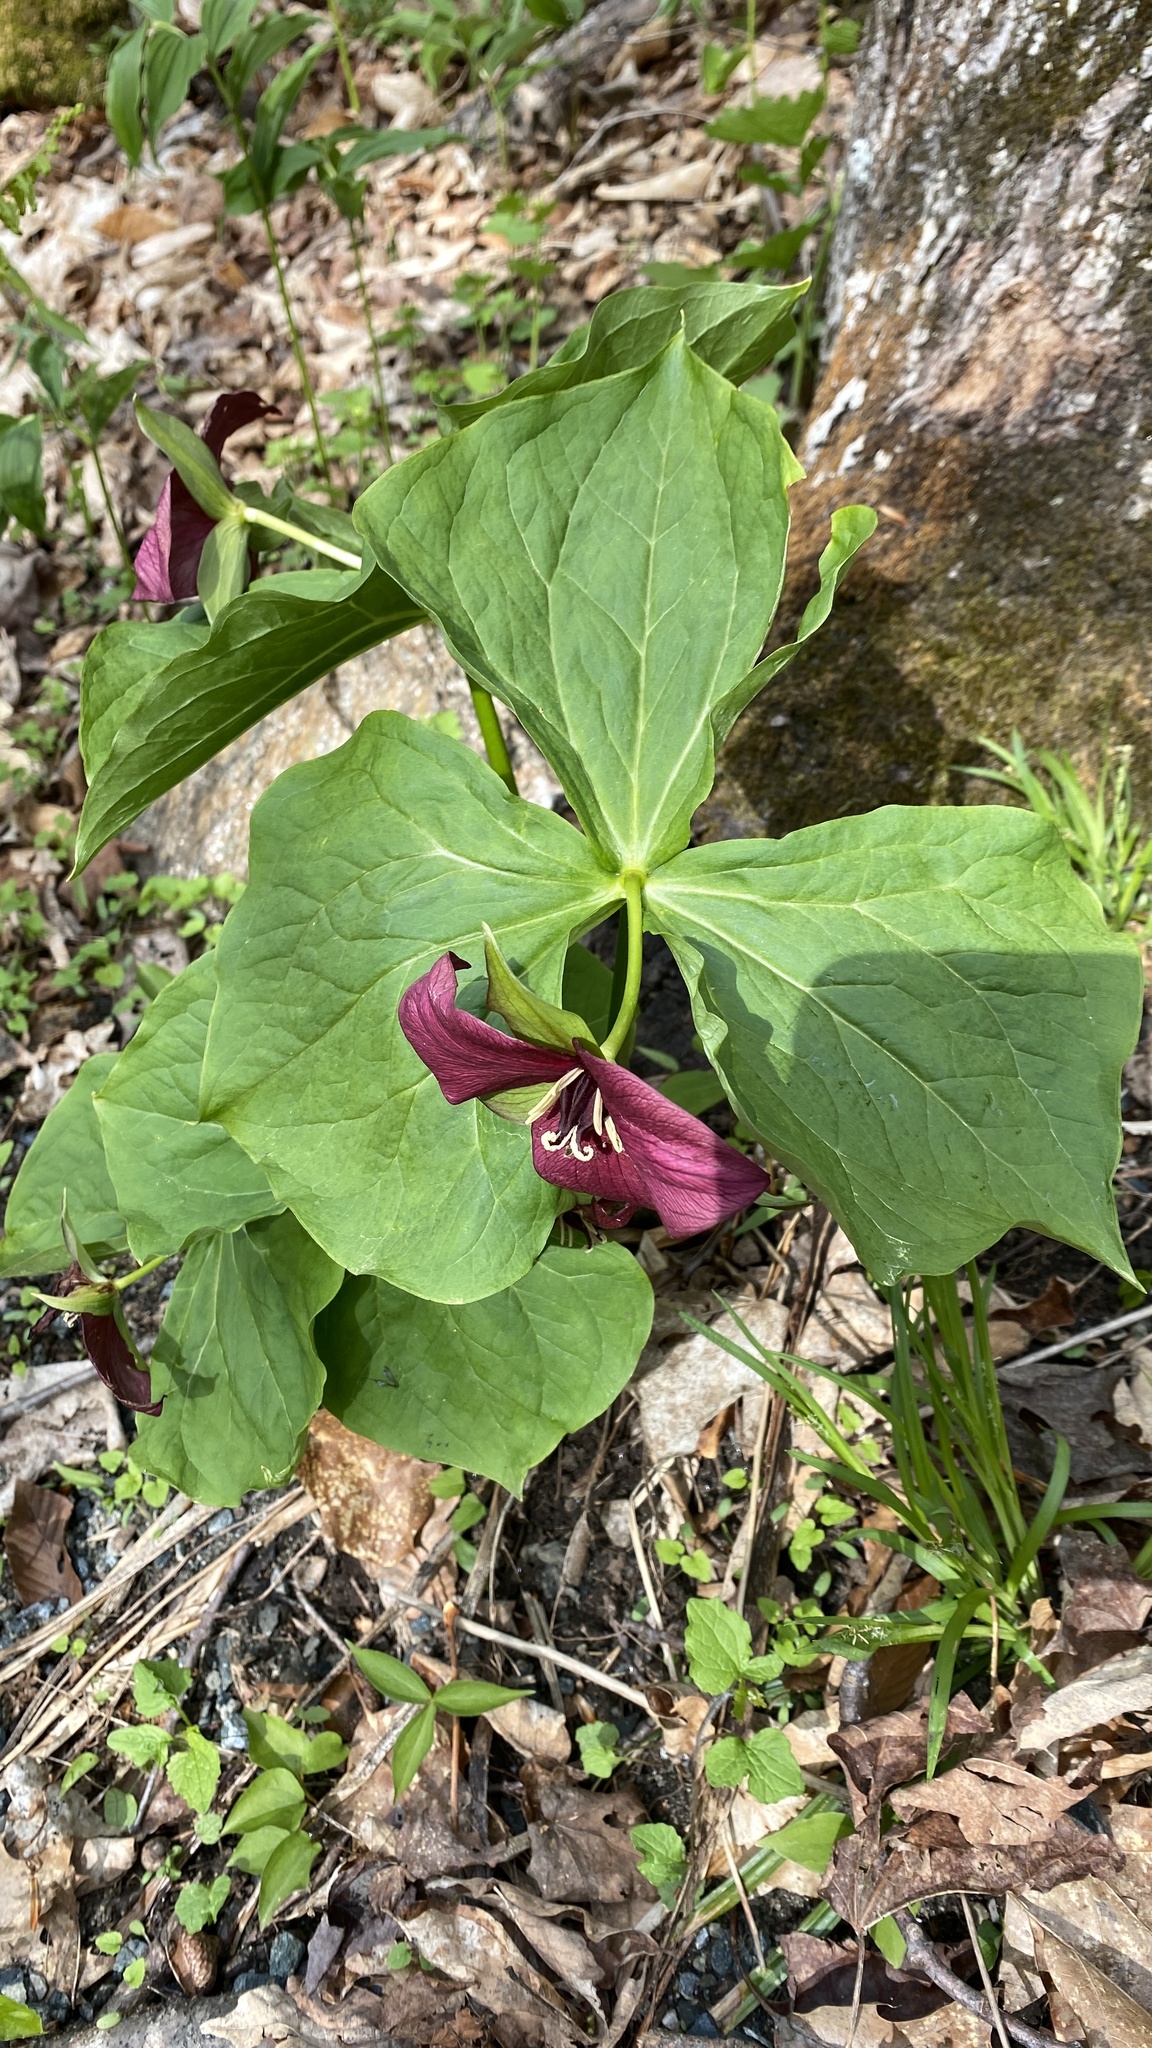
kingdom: Plantae
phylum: Tracheophyta
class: Liliopsida
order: Liliales
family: Melanthiaceae
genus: Trillium
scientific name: Trillium erectum
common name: Purple trillium
